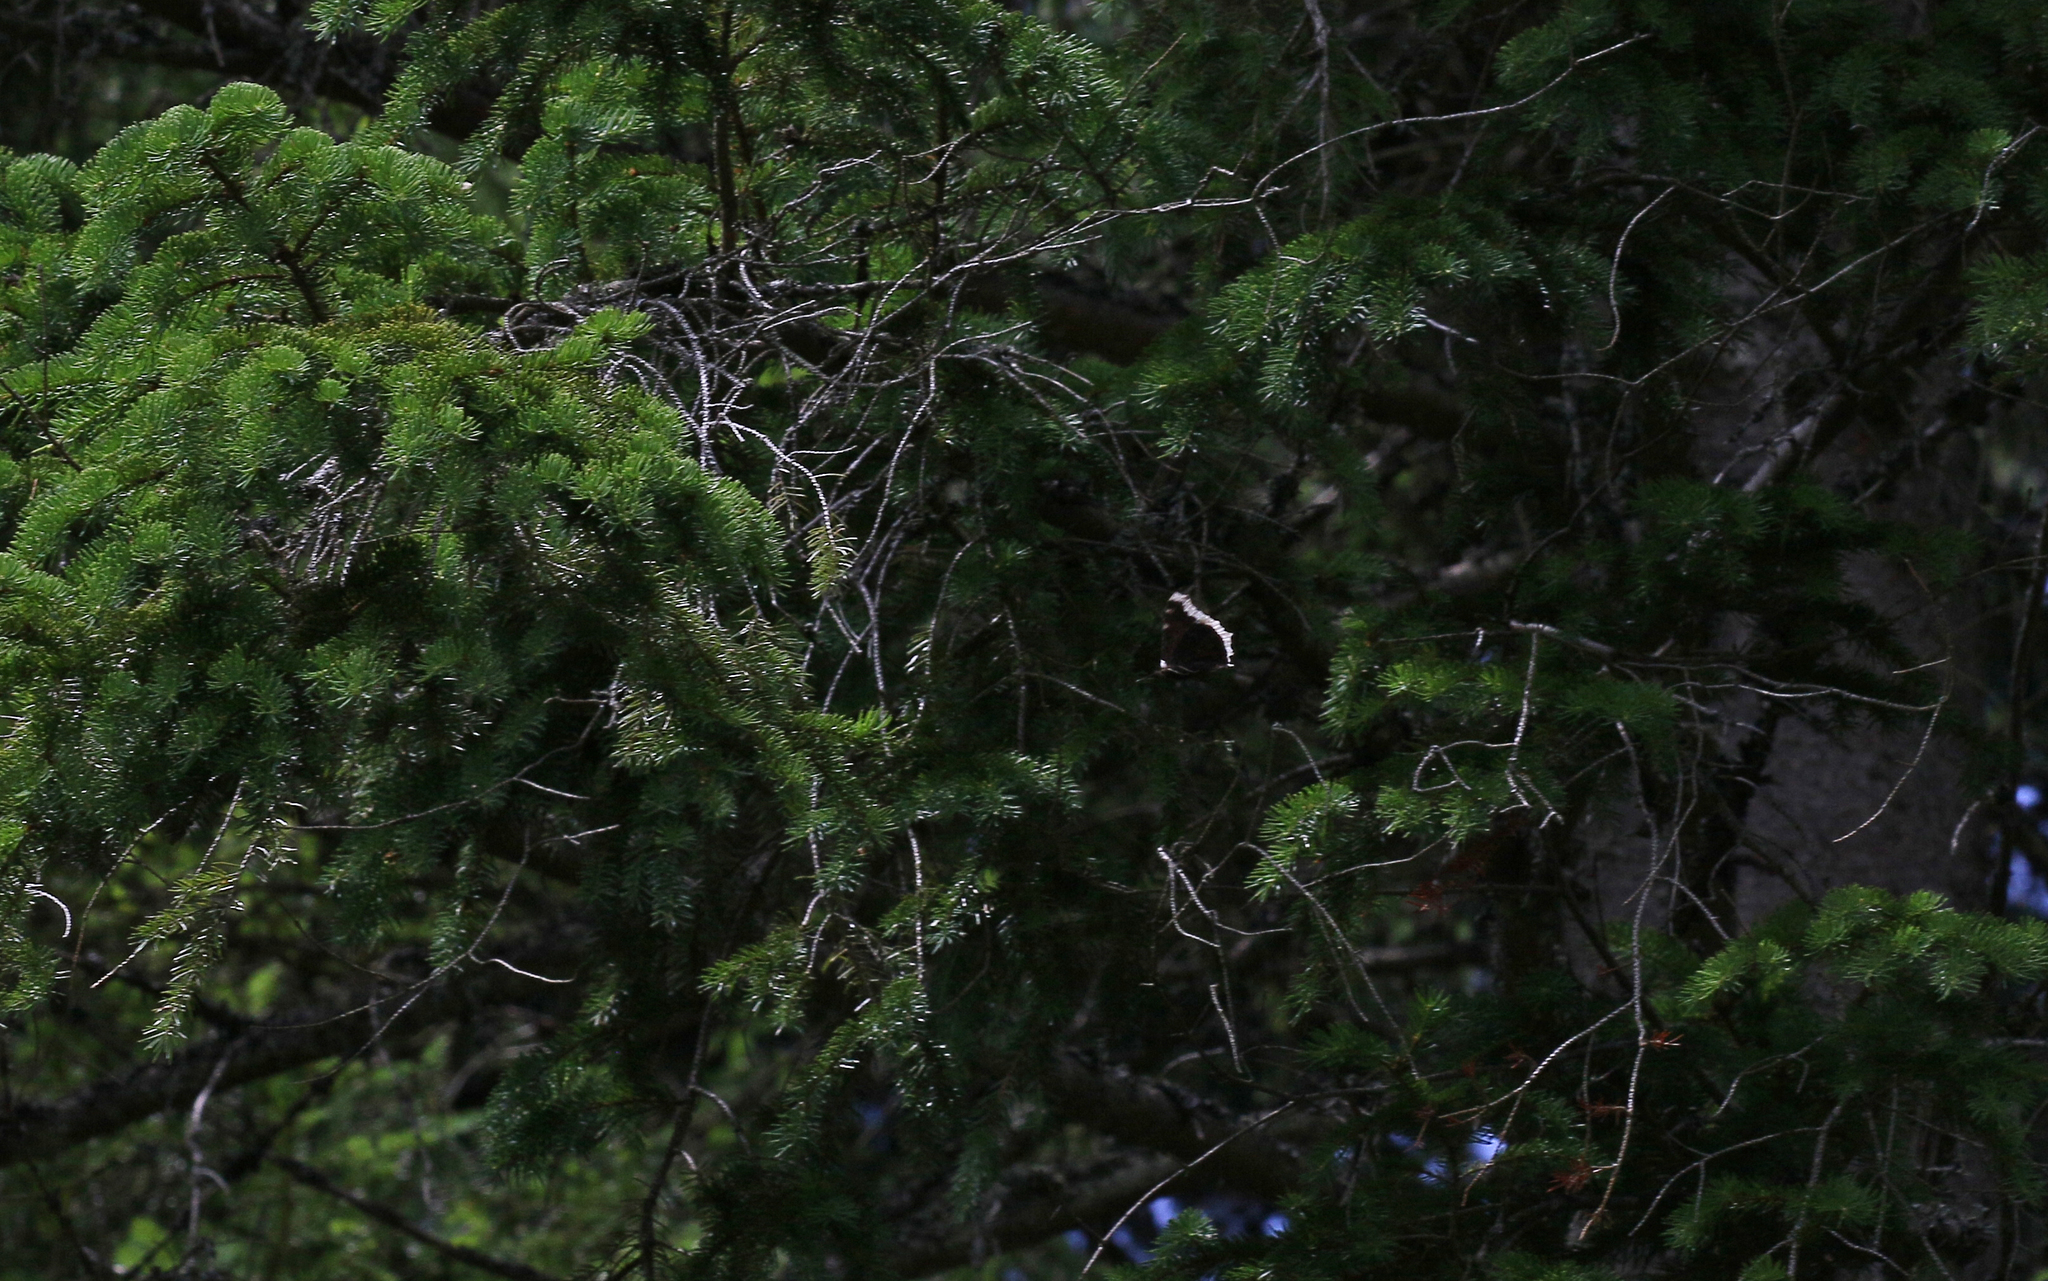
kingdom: Animalia
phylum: Arthropoda
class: Insecta
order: Lepidoptera
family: Nymphalidae
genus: Nymphalis
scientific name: Nymphalis antiopa
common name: Camberwell beauty
